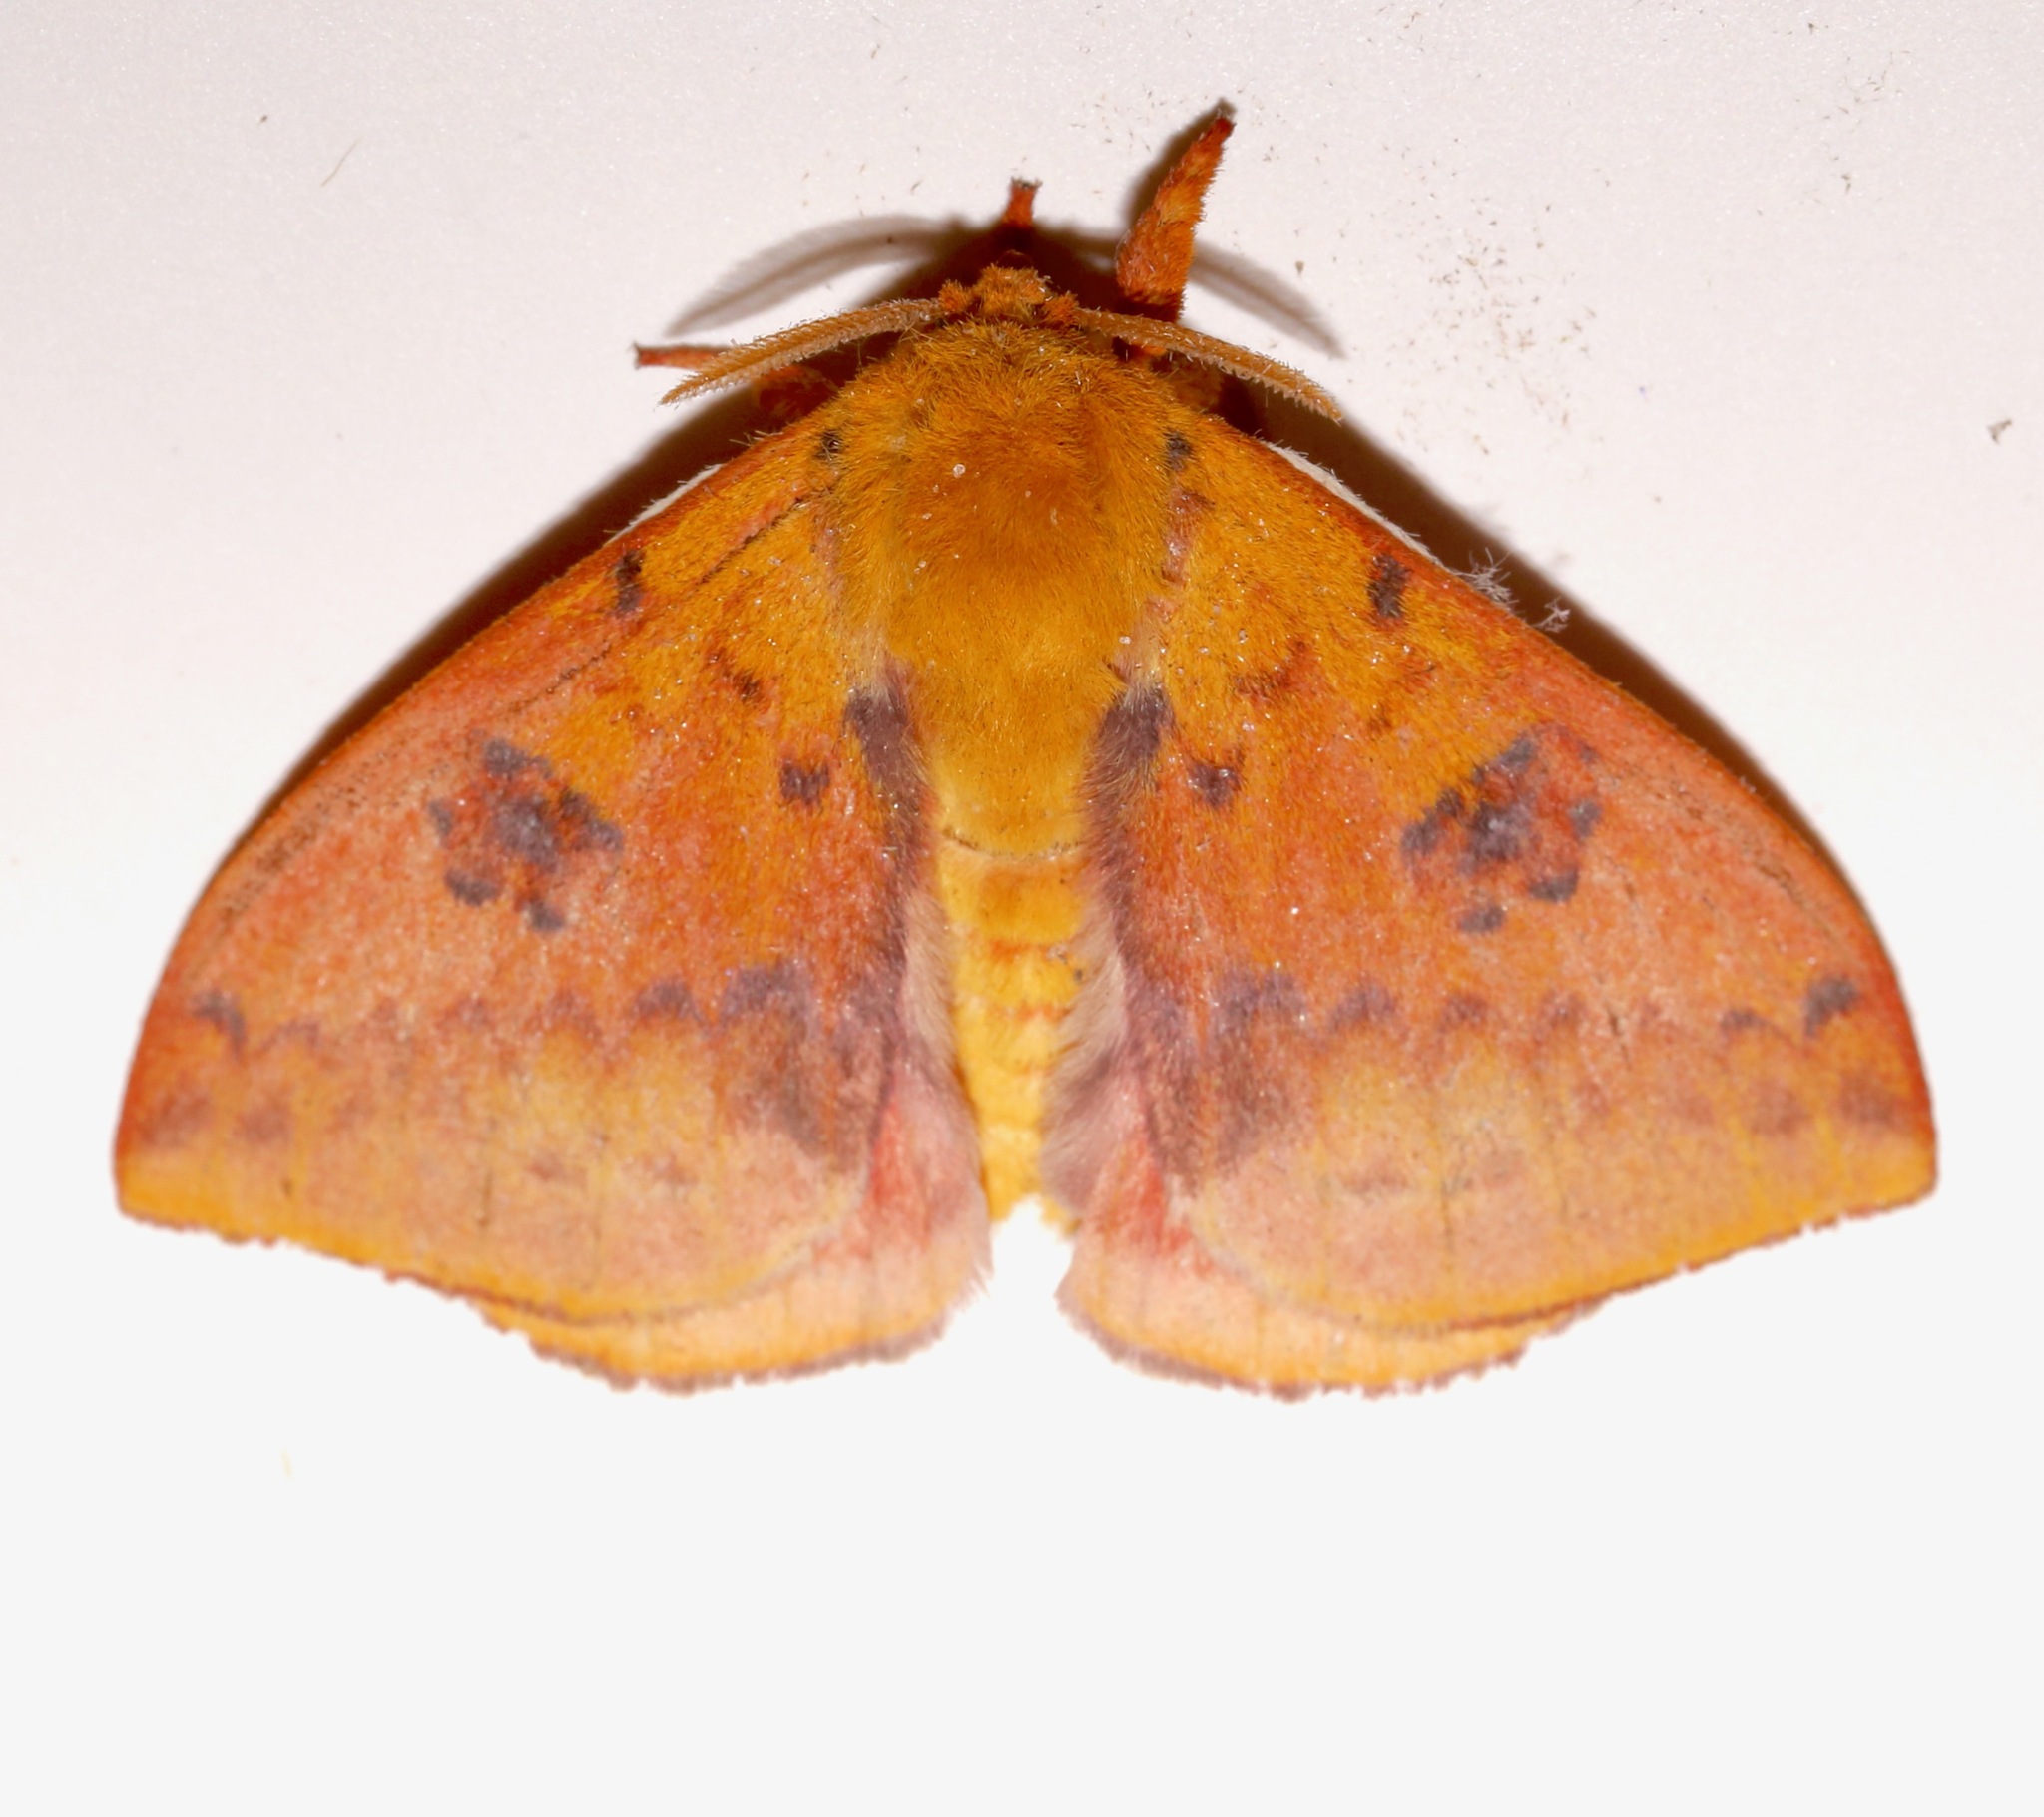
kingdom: Animalia
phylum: Arthropoda
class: Insecta
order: Lepidoptera
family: Saturniidae
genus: Automeris
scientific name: Automeris io
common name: Io moth
